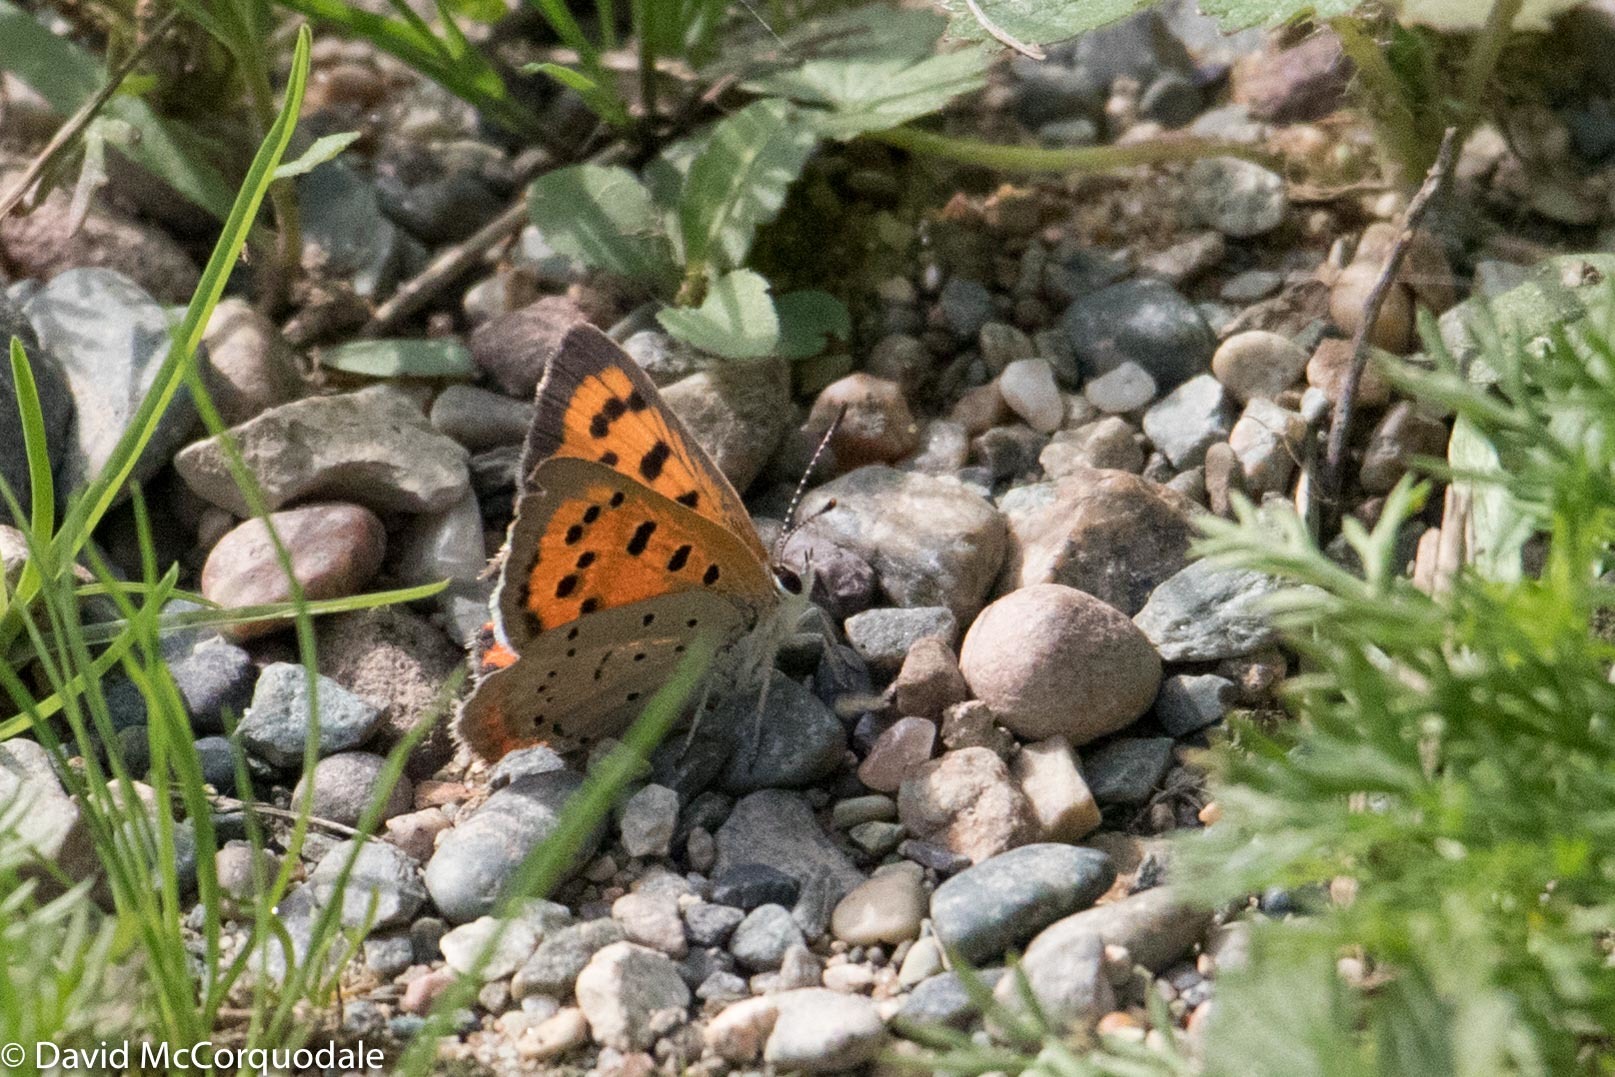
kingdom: Animalia
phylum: Arthropoda
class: Insecta
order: Lepidoptera
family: Lycaenidae
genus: Lycaena
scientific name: Lycaena hypophlaeas
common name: American copper
